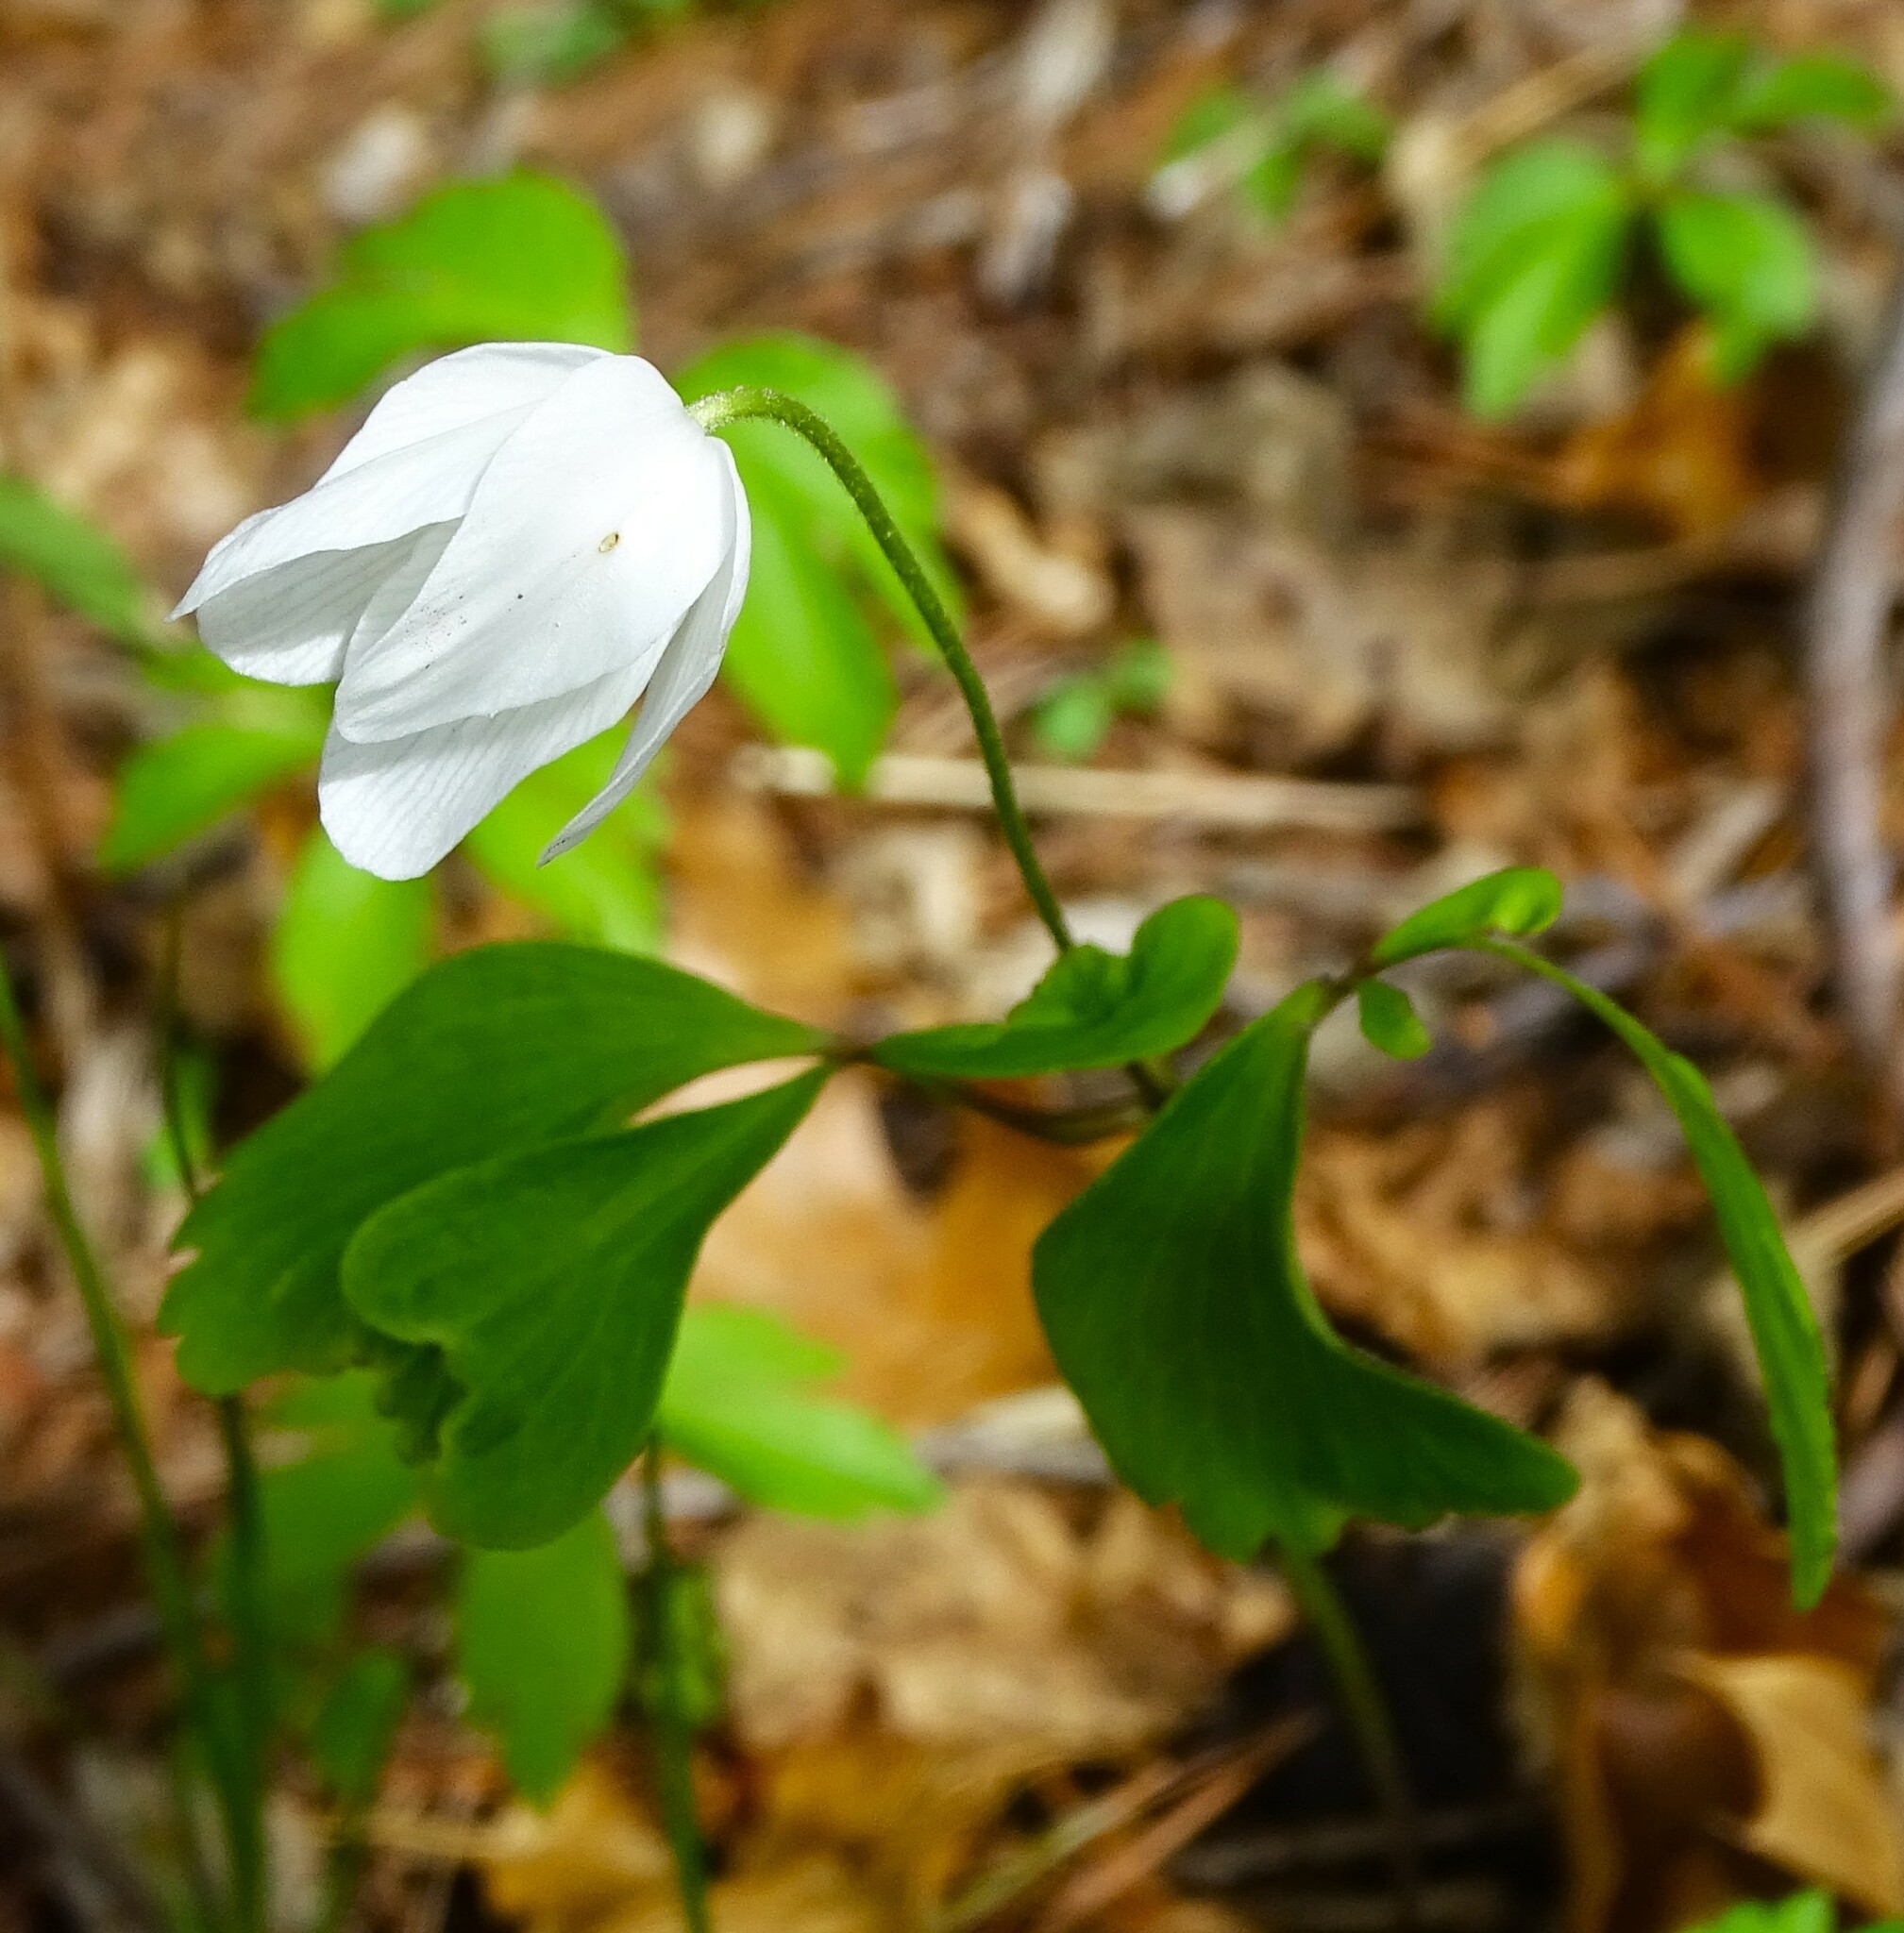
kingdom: Plantae
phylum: Tracheophyta
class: Magnoliopsida
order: Ranunculales
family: Ranunculaceae
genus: Anemone
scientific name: Anemone quinquefolia
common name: Wood anemone
